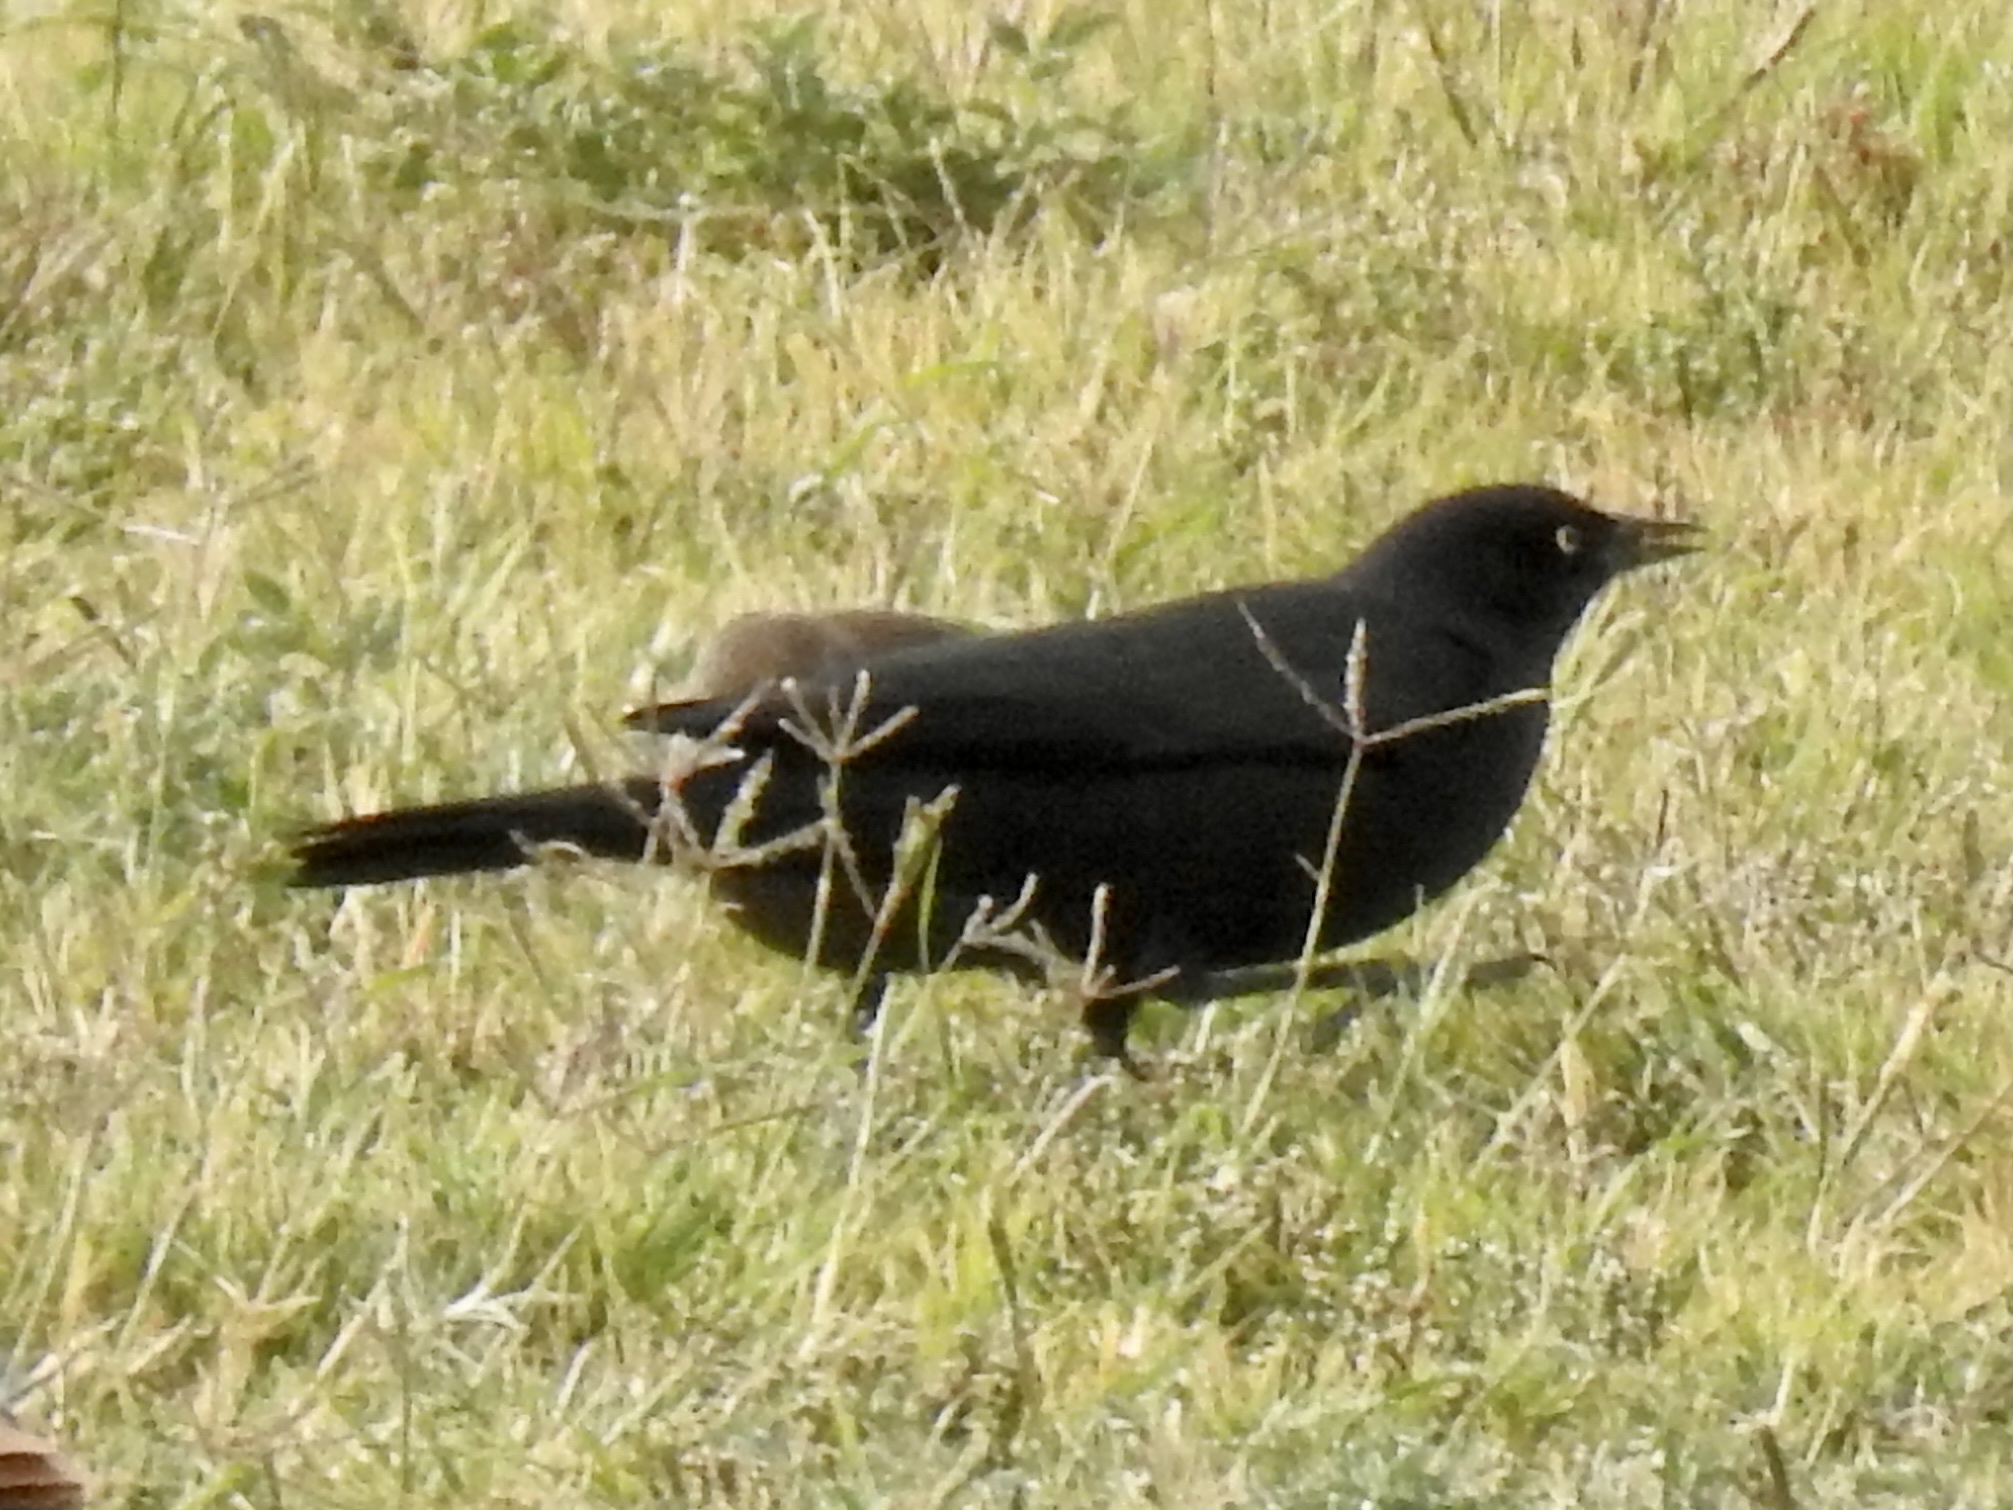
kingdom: Animalia
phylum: Chordata
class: Aves
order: Passeriformes
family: Icteridae
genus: Euphagus
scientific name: Euphagus cyanocephalus
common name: Brewer's blackbird
